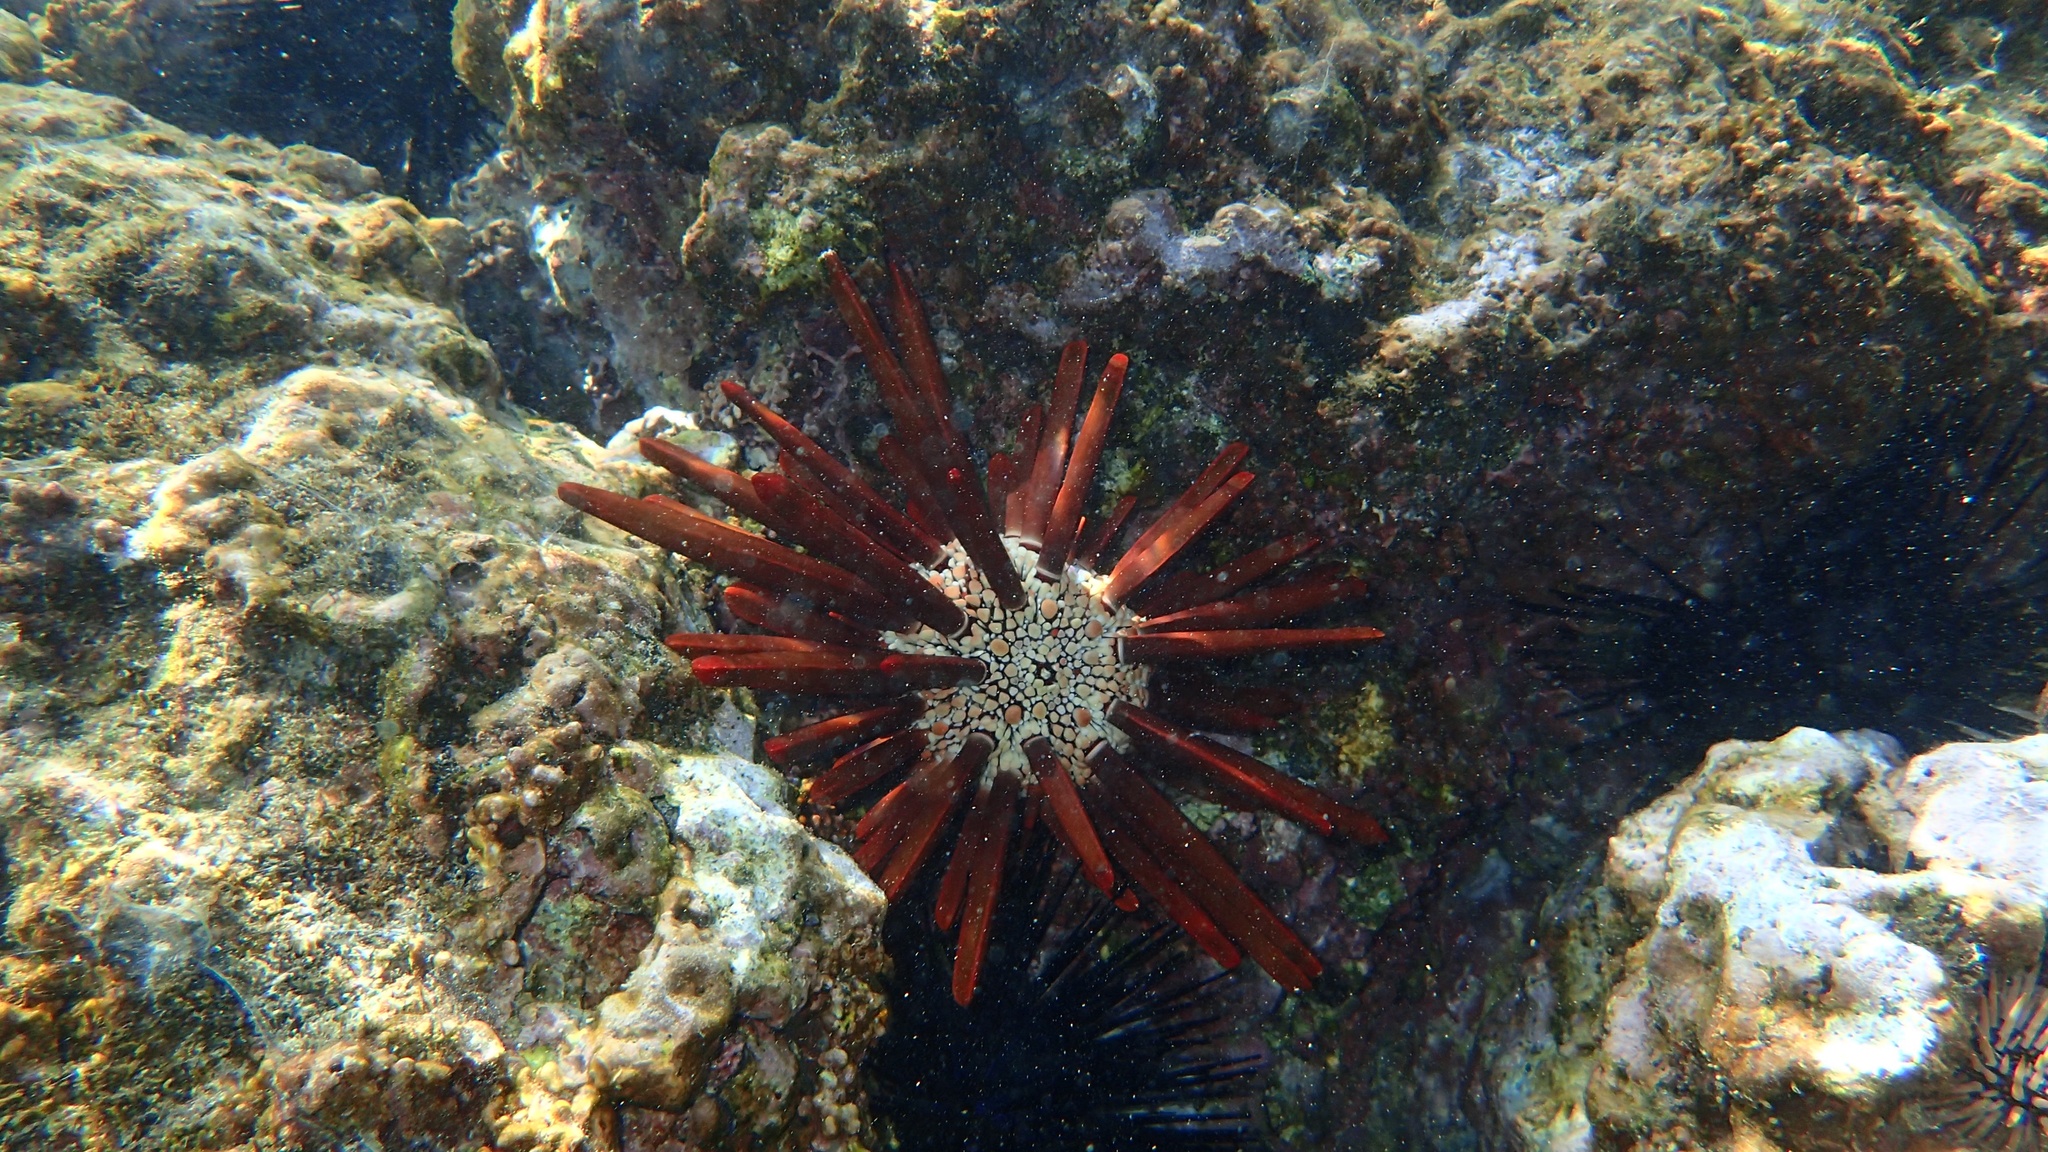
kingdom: Animalia
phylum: Echinodermata
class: Echinoidea
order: Camarodonta
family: Echinometridae
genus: Heterocentrotus
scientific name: Heterocentrotus mamillatus
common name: Slate pencil urchin
